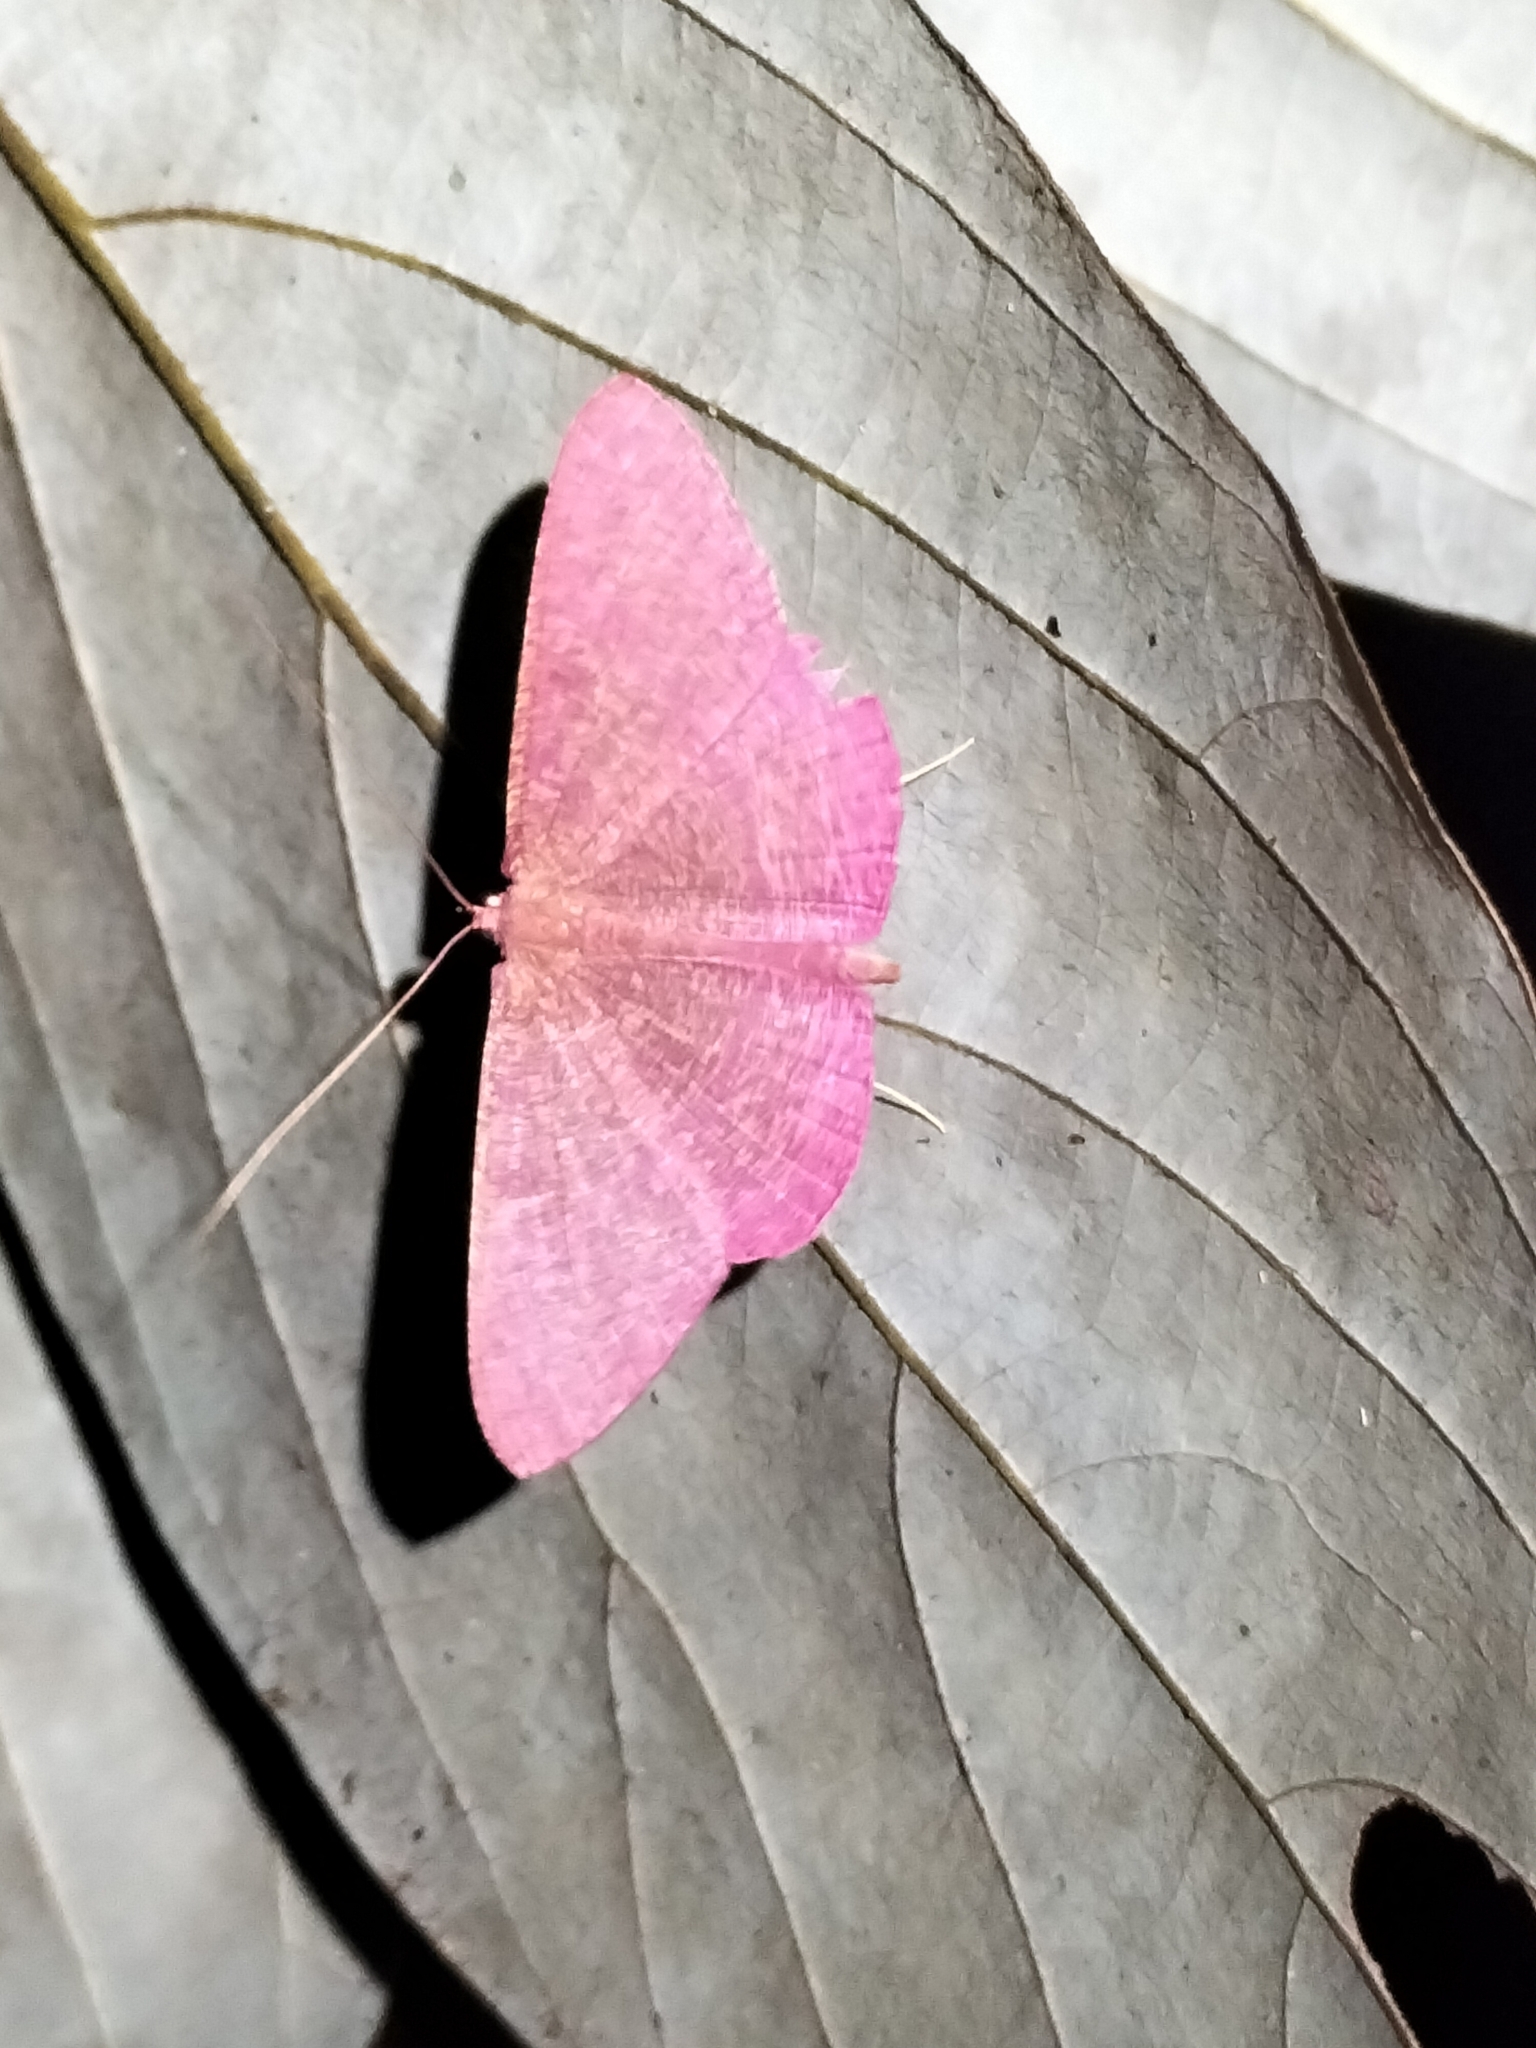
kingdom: Animalia
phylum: Arthropoda
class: Insecta
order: Lepidoptera
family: Geometridae
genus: Eumelea
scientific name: Eumelea stipata
